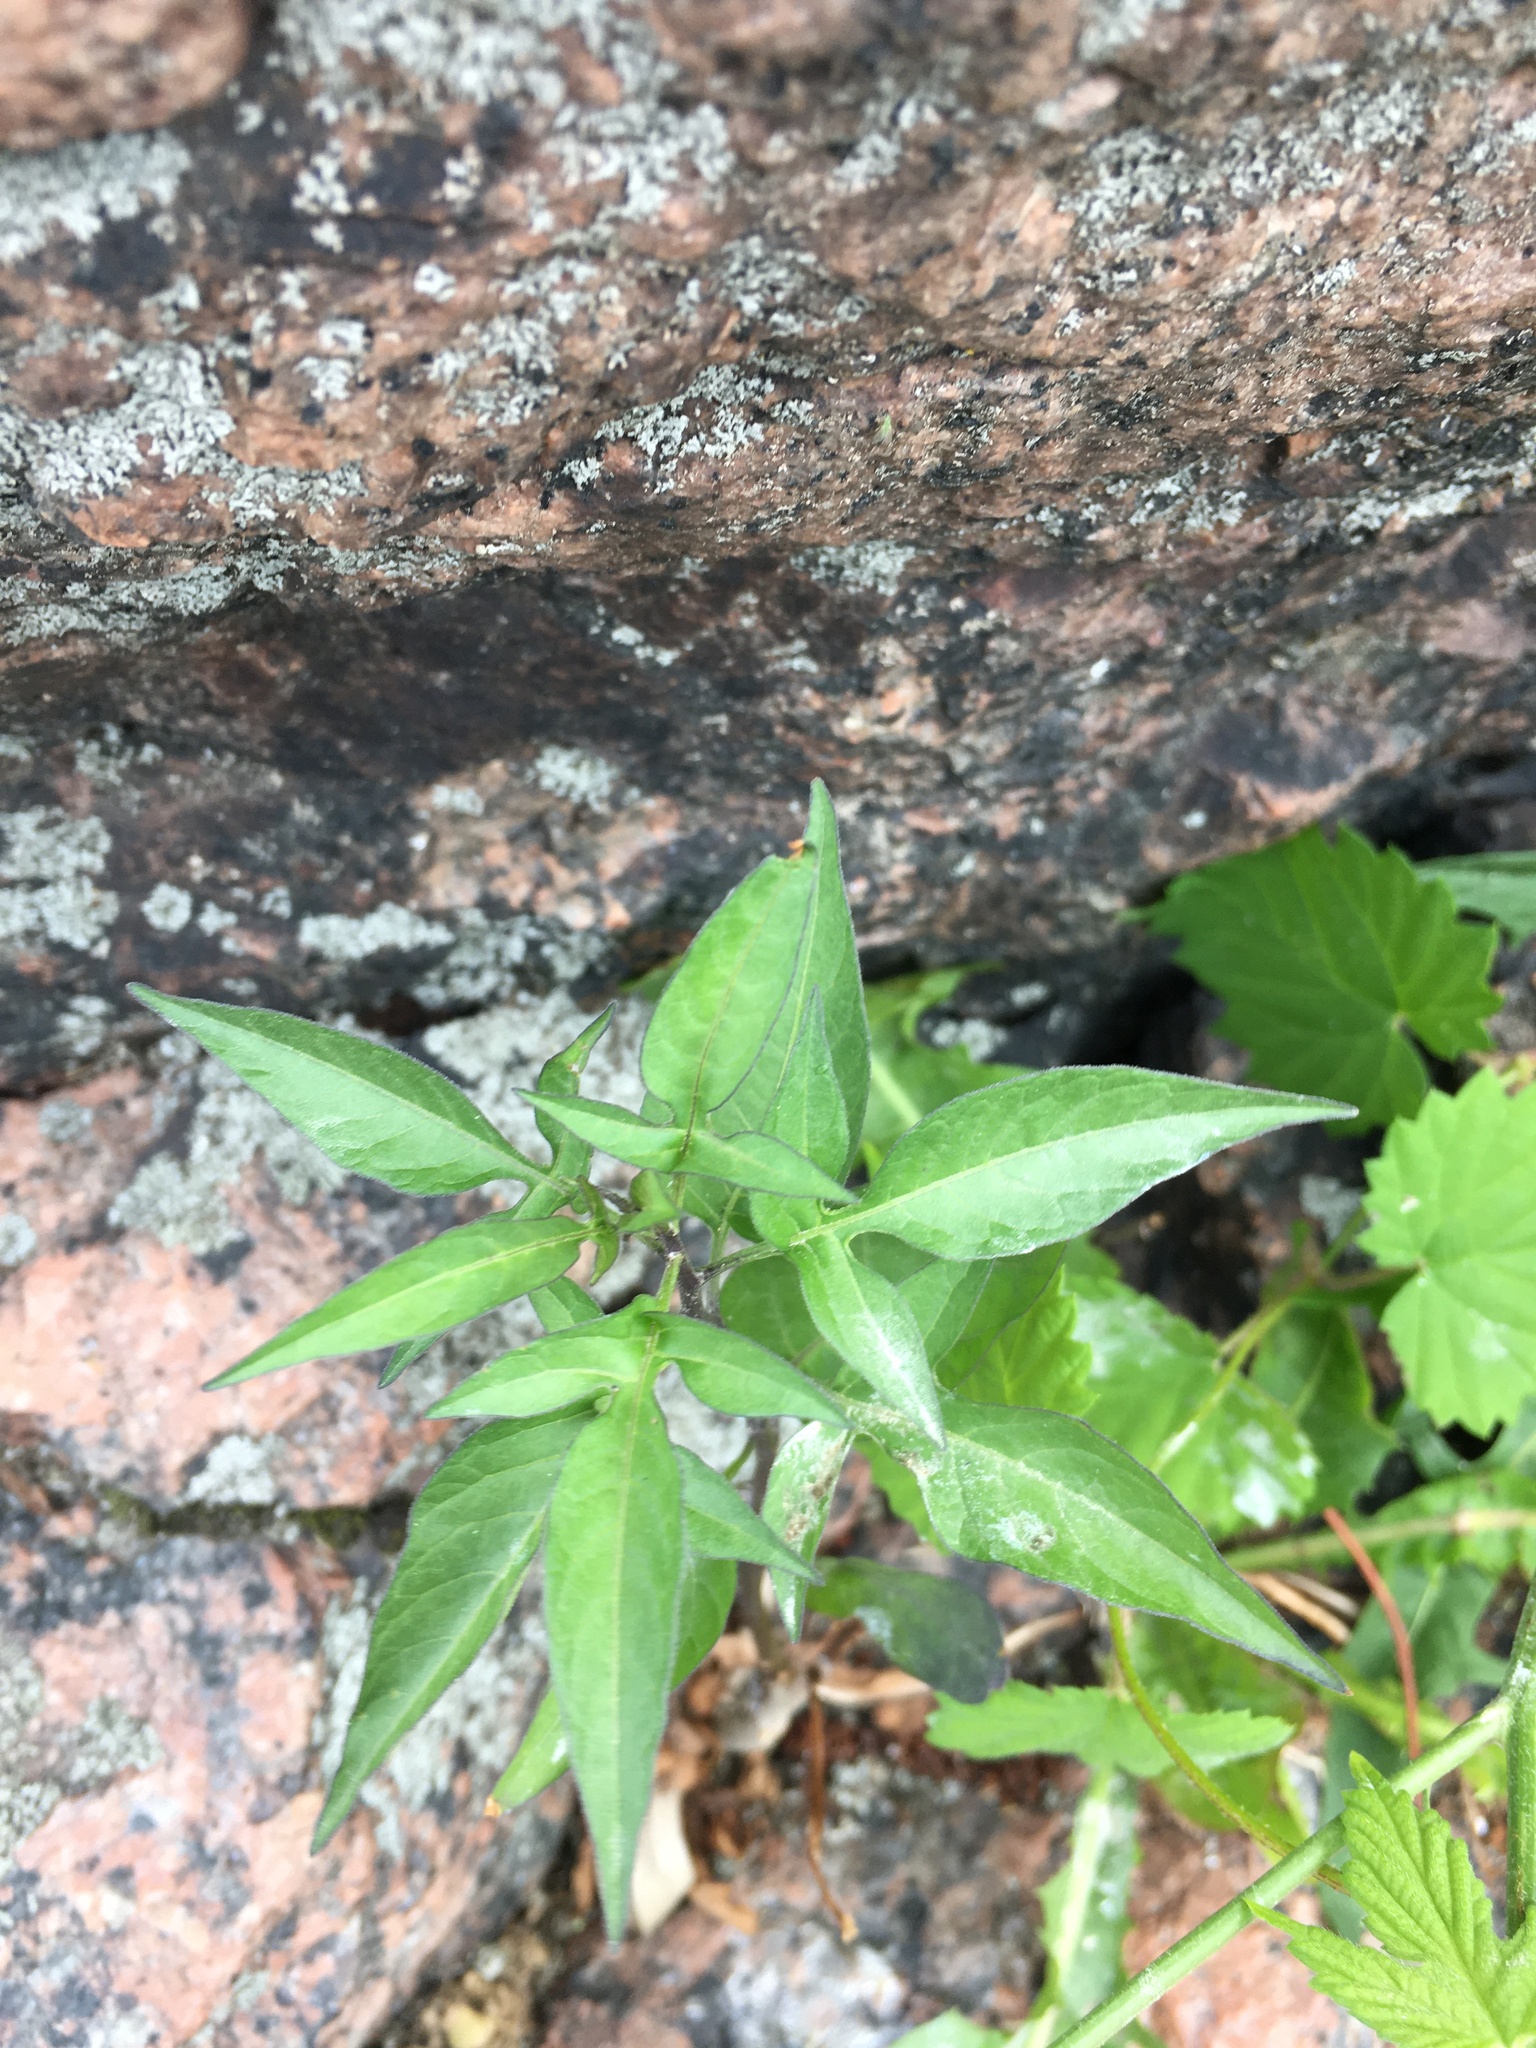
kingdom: Plantae
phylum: Tracheophyta
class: Magnoliopsida
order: Solanales
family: Solanaceae
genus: Solanum
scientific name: Solanum dulcamara
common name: Climbing nightshade
